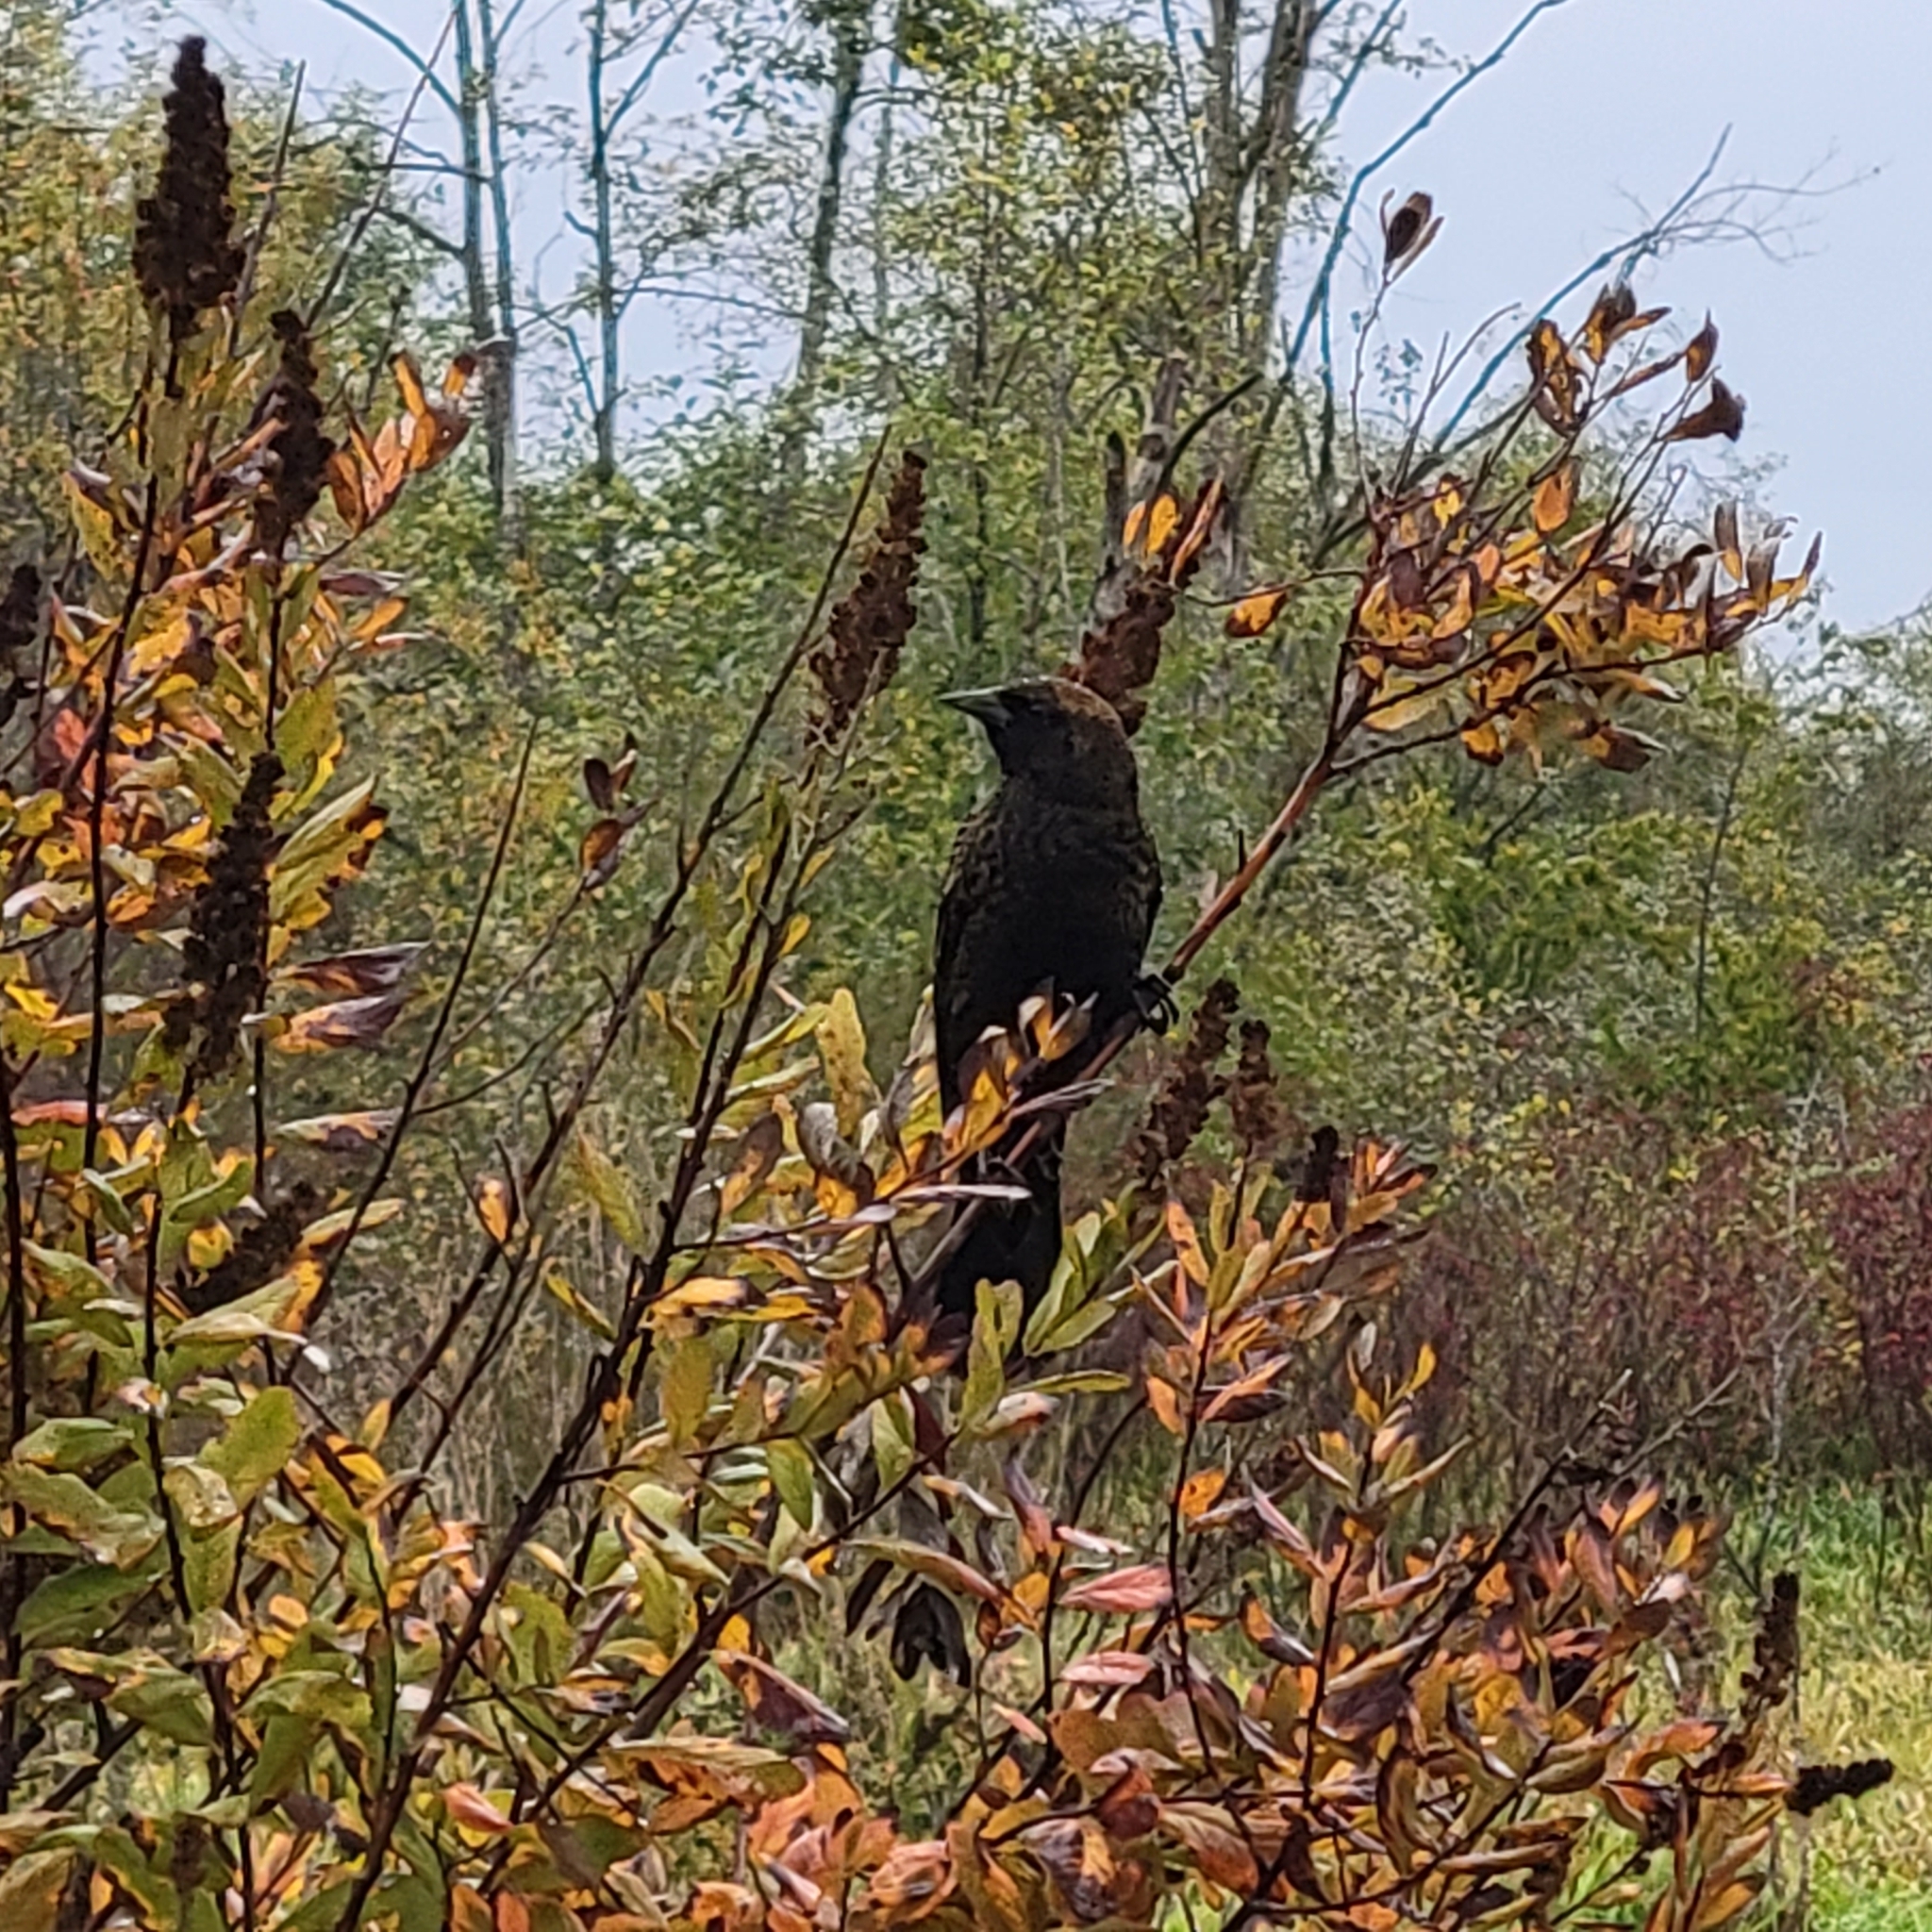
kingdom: Animalia
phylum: Chordata
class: Aves
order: Passeriformes
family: Icteridae
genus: Agelaius
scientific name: Agelaius phoeniceus
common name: Red-winged blackbird
